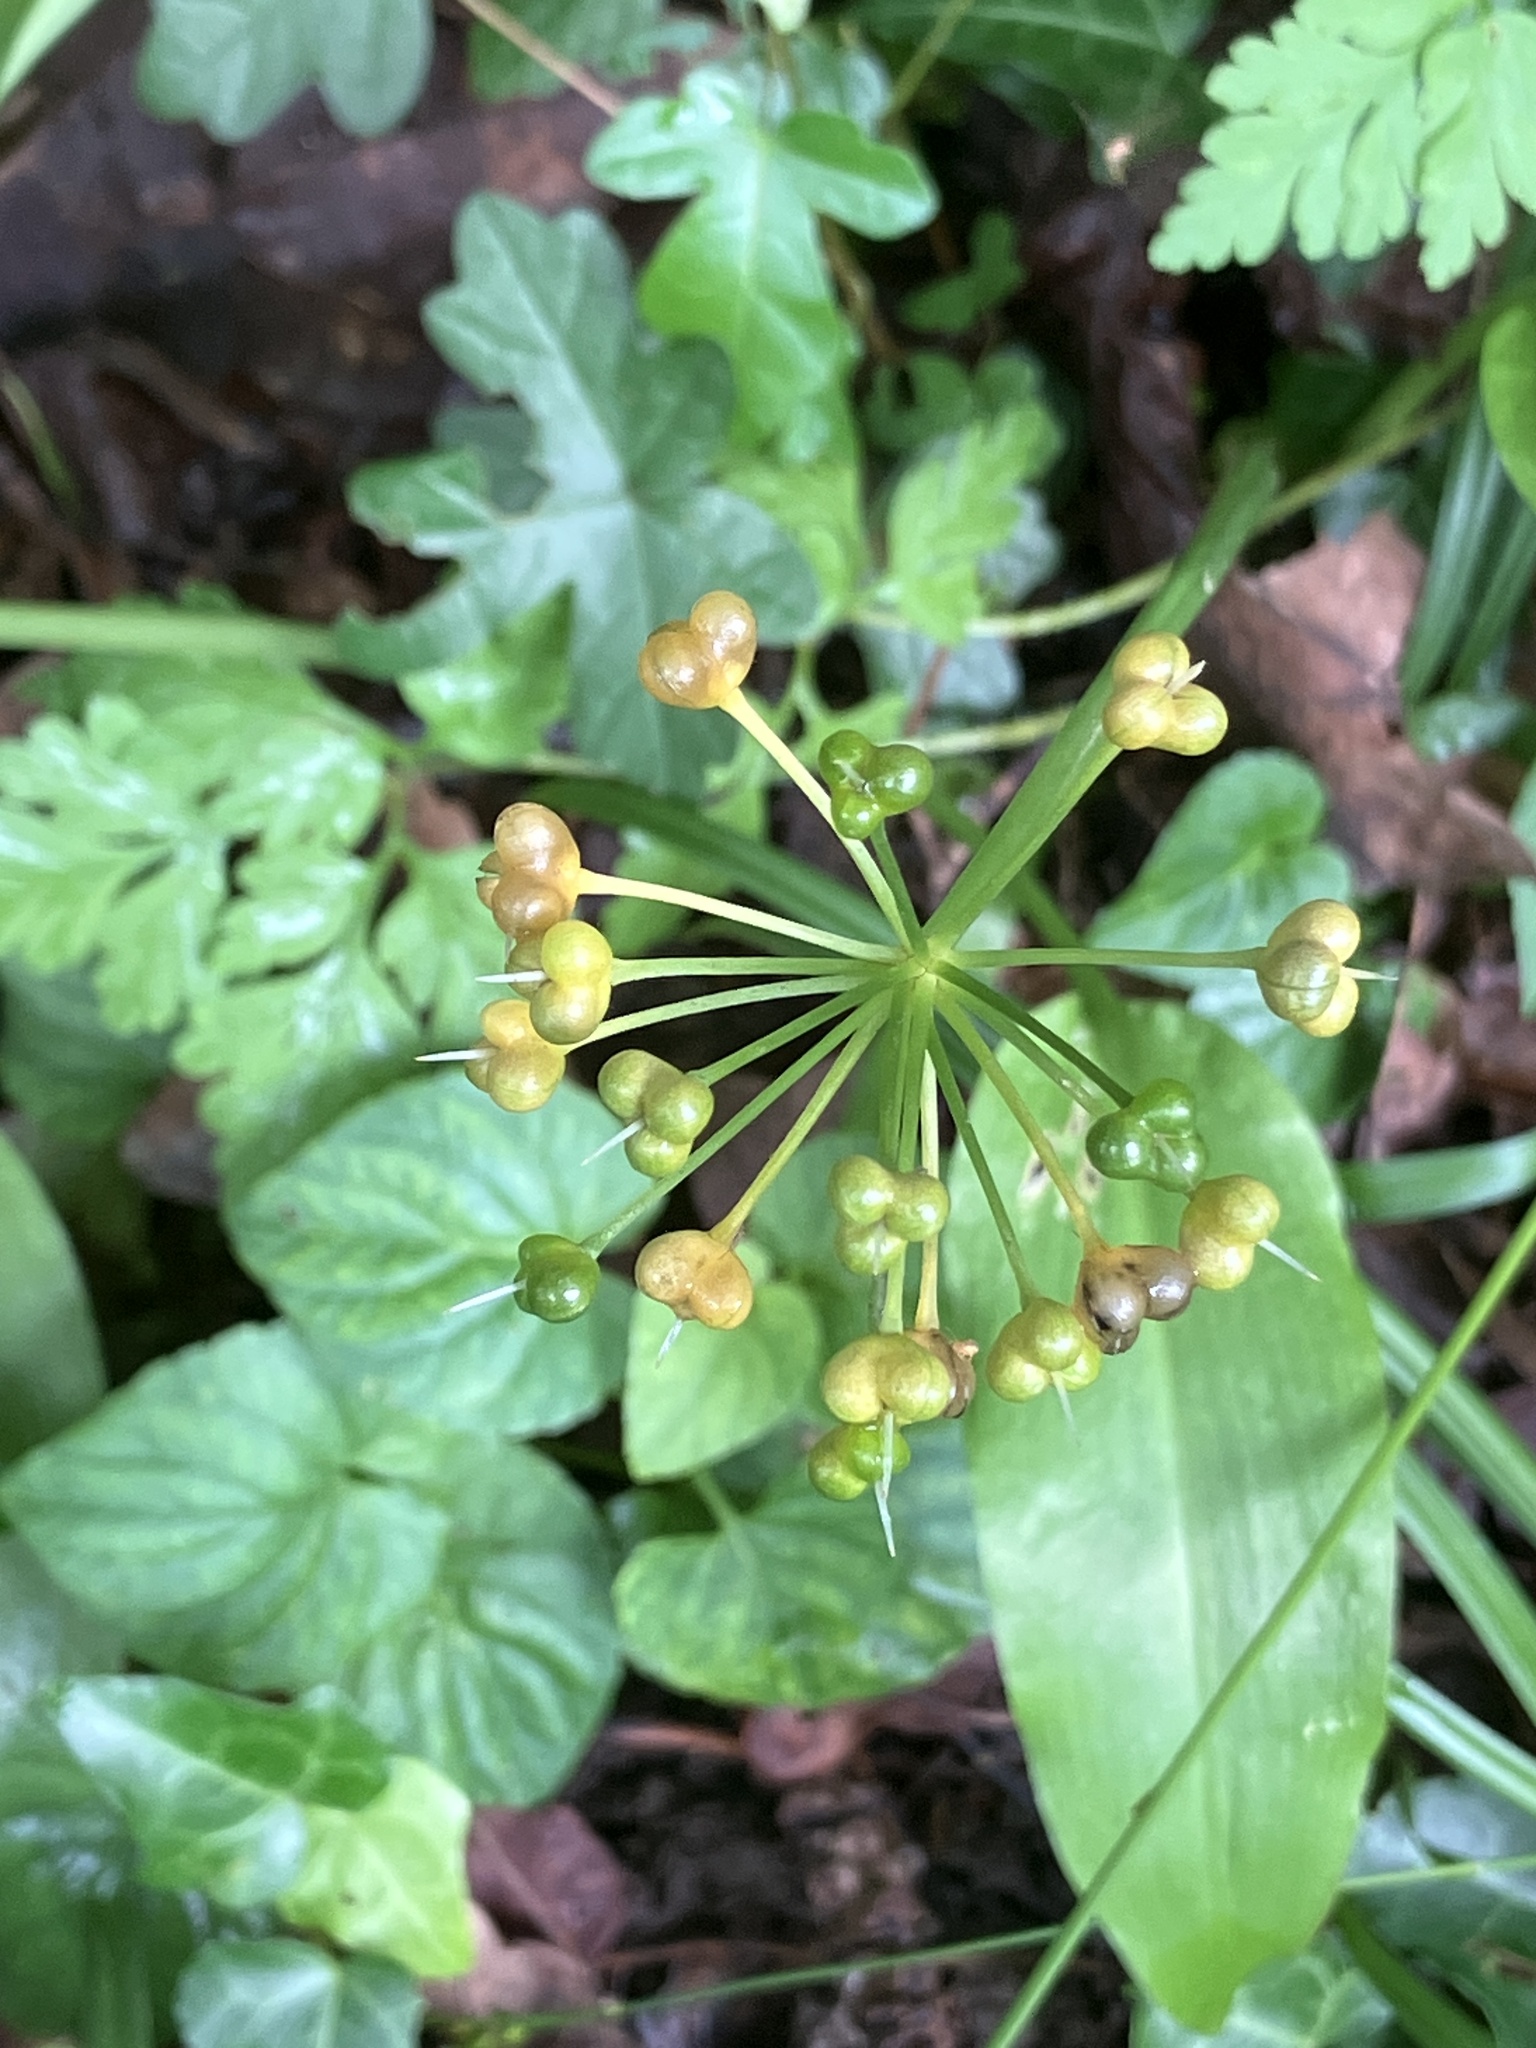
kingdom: Plantae
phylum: Tracheophyta
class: Liliopsida
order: Asparagales
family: Amaryllidaceae
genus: Allium
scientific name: Allium ursinum
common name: Ramsons
